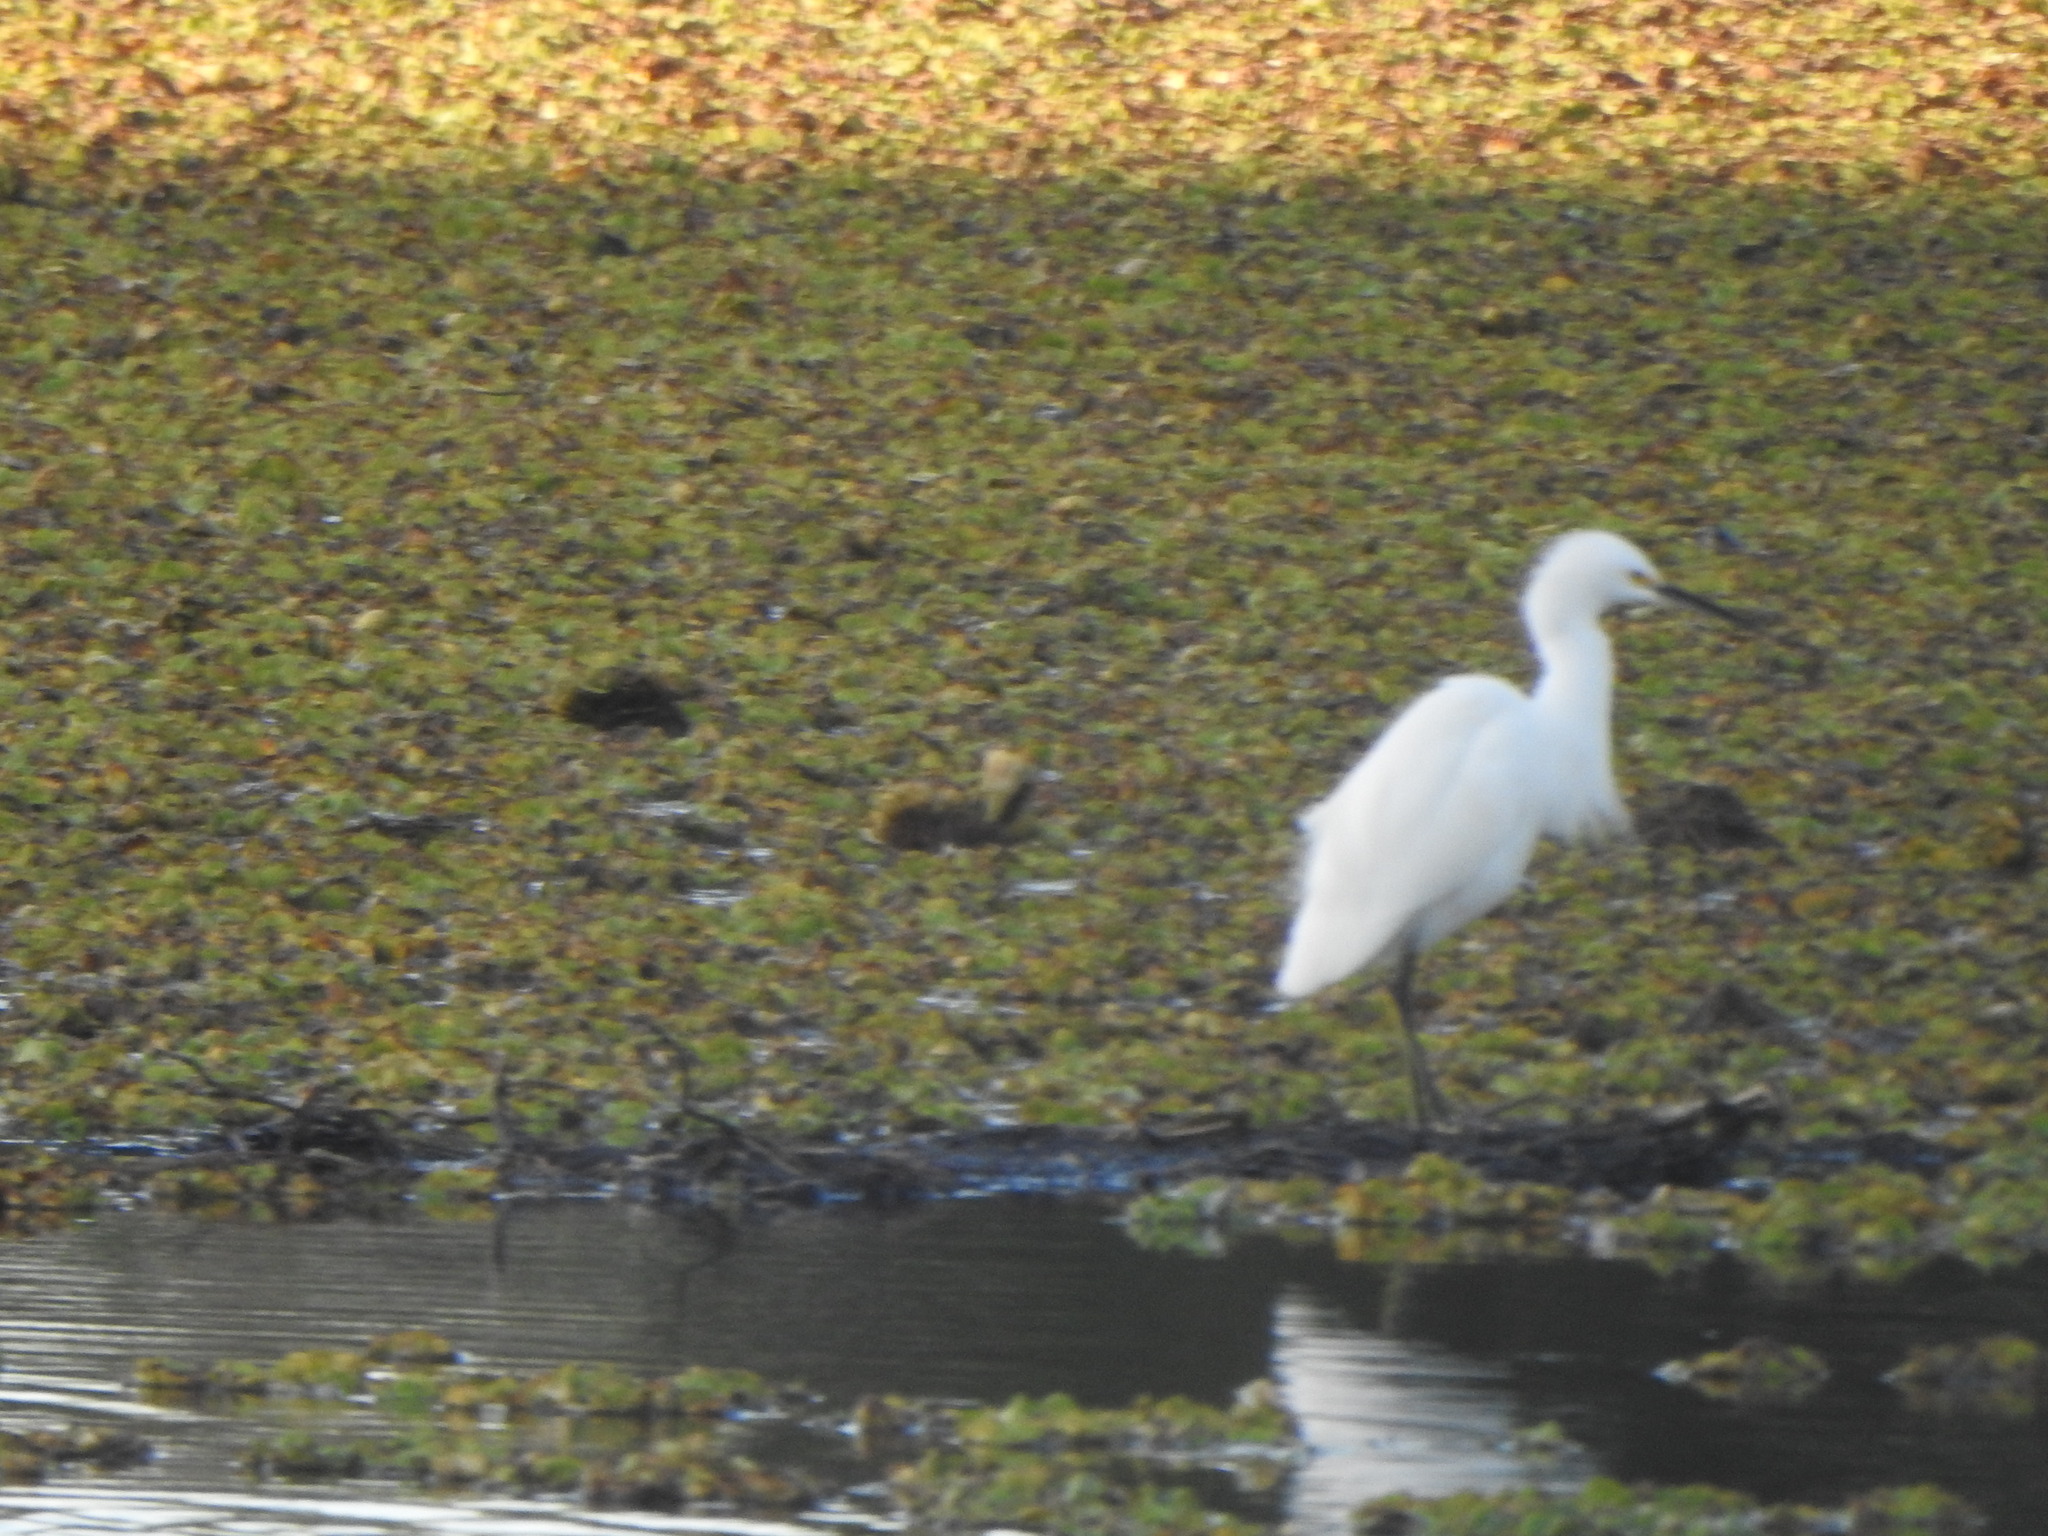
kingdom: Animalia
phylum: Chordata
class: Aves
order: Pelecaniformes
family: Ardeidae
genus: Egretta
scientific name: Egretta thula
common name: Snowy egret
